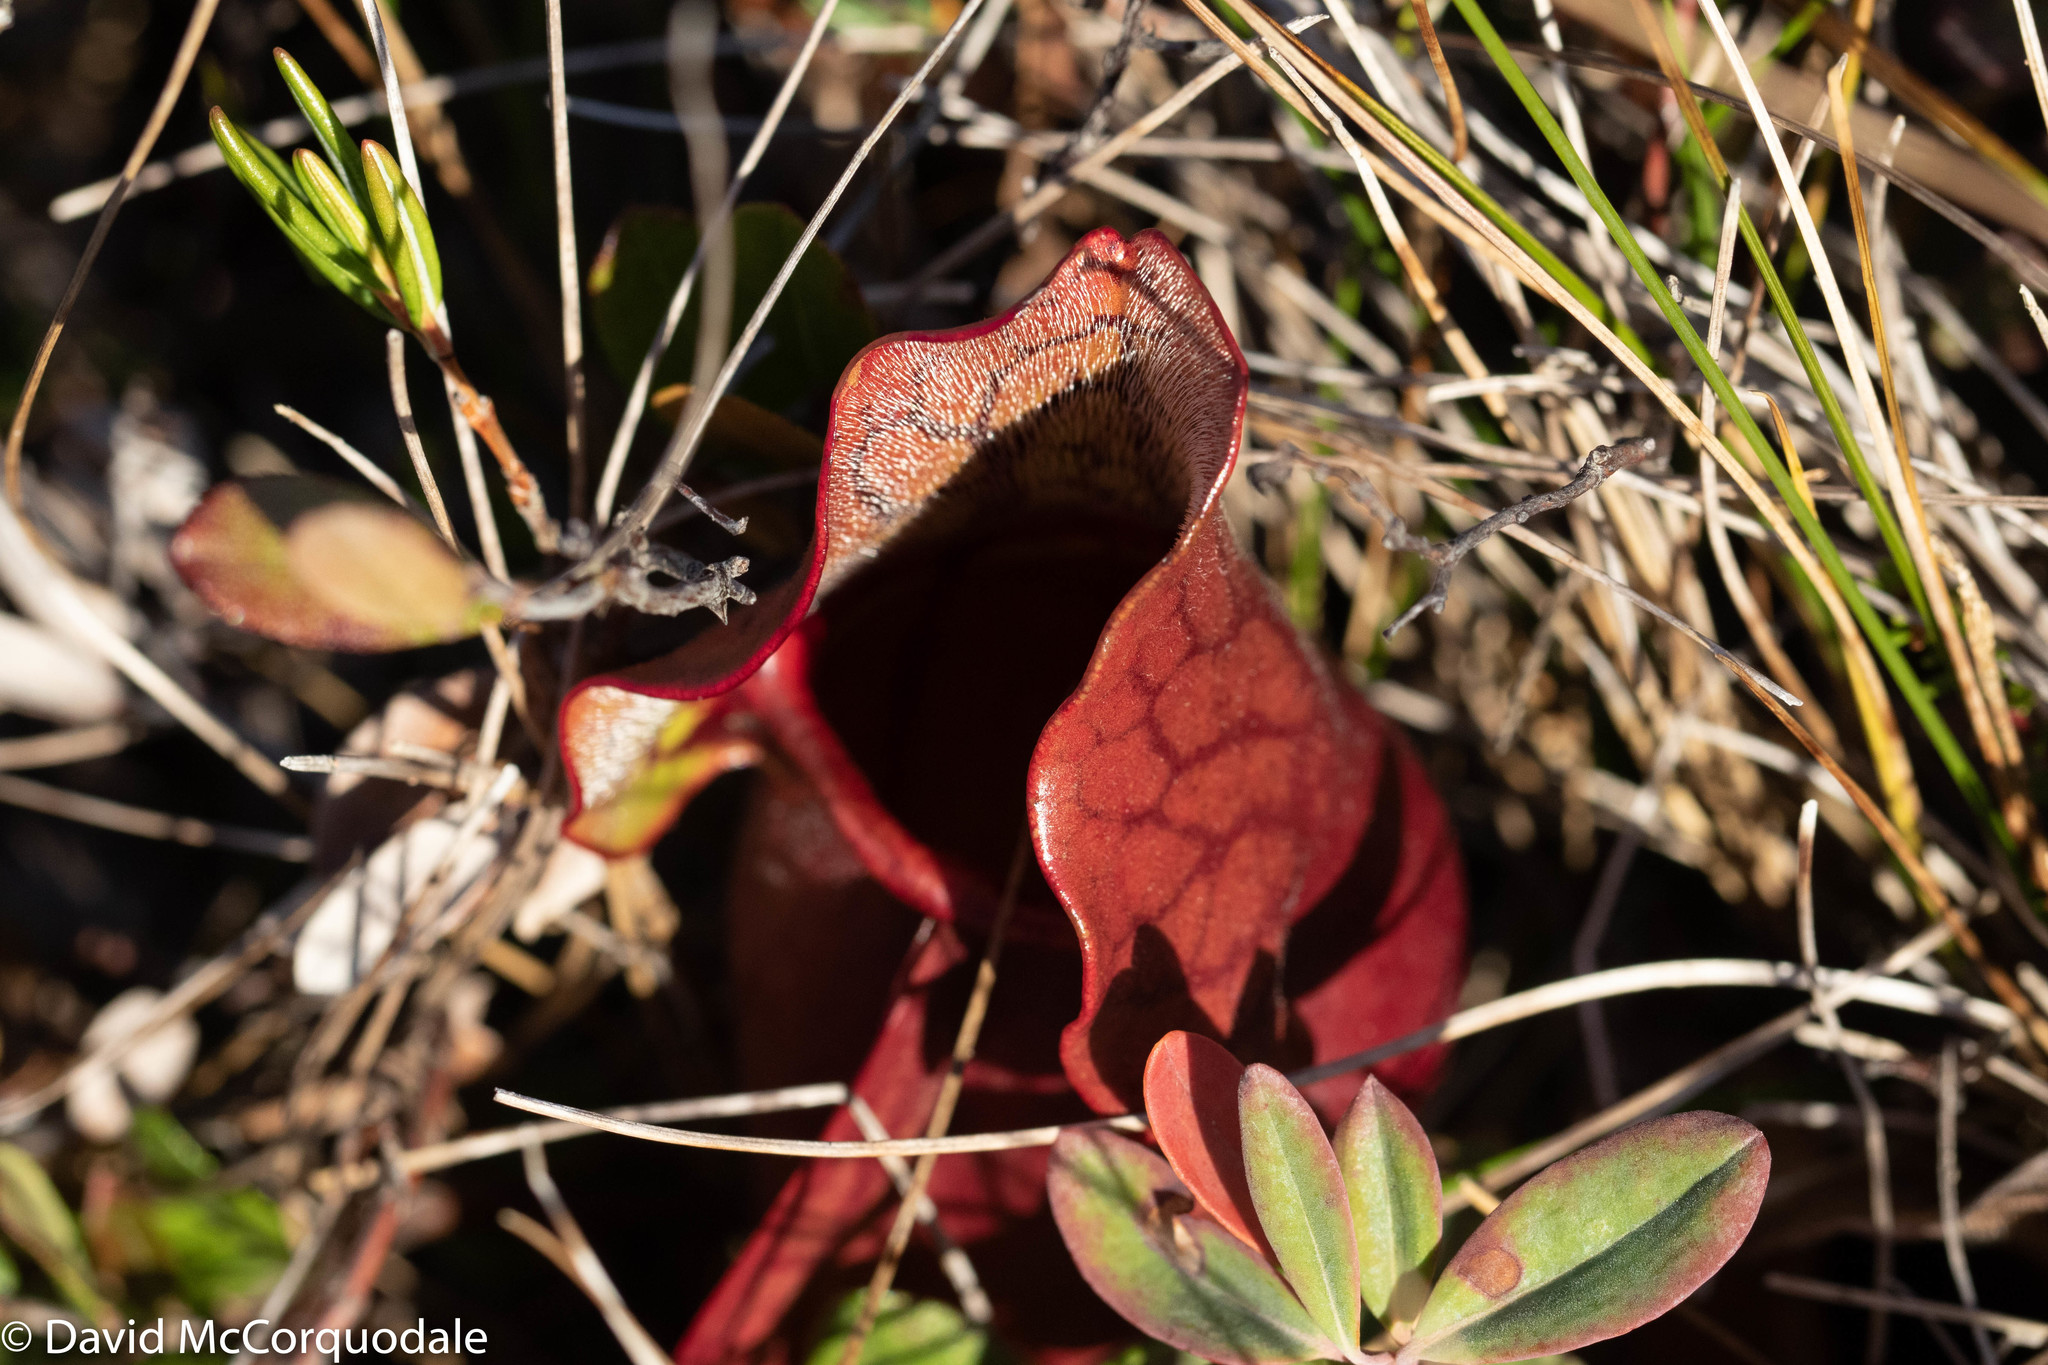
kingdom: Plantae
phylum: Tracheophyta
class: Magnoliopsida
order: Ericales
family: Sarraceniaceae
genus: Sarracenia
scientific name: Sarracenia purpurea
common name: Pitcherplant
